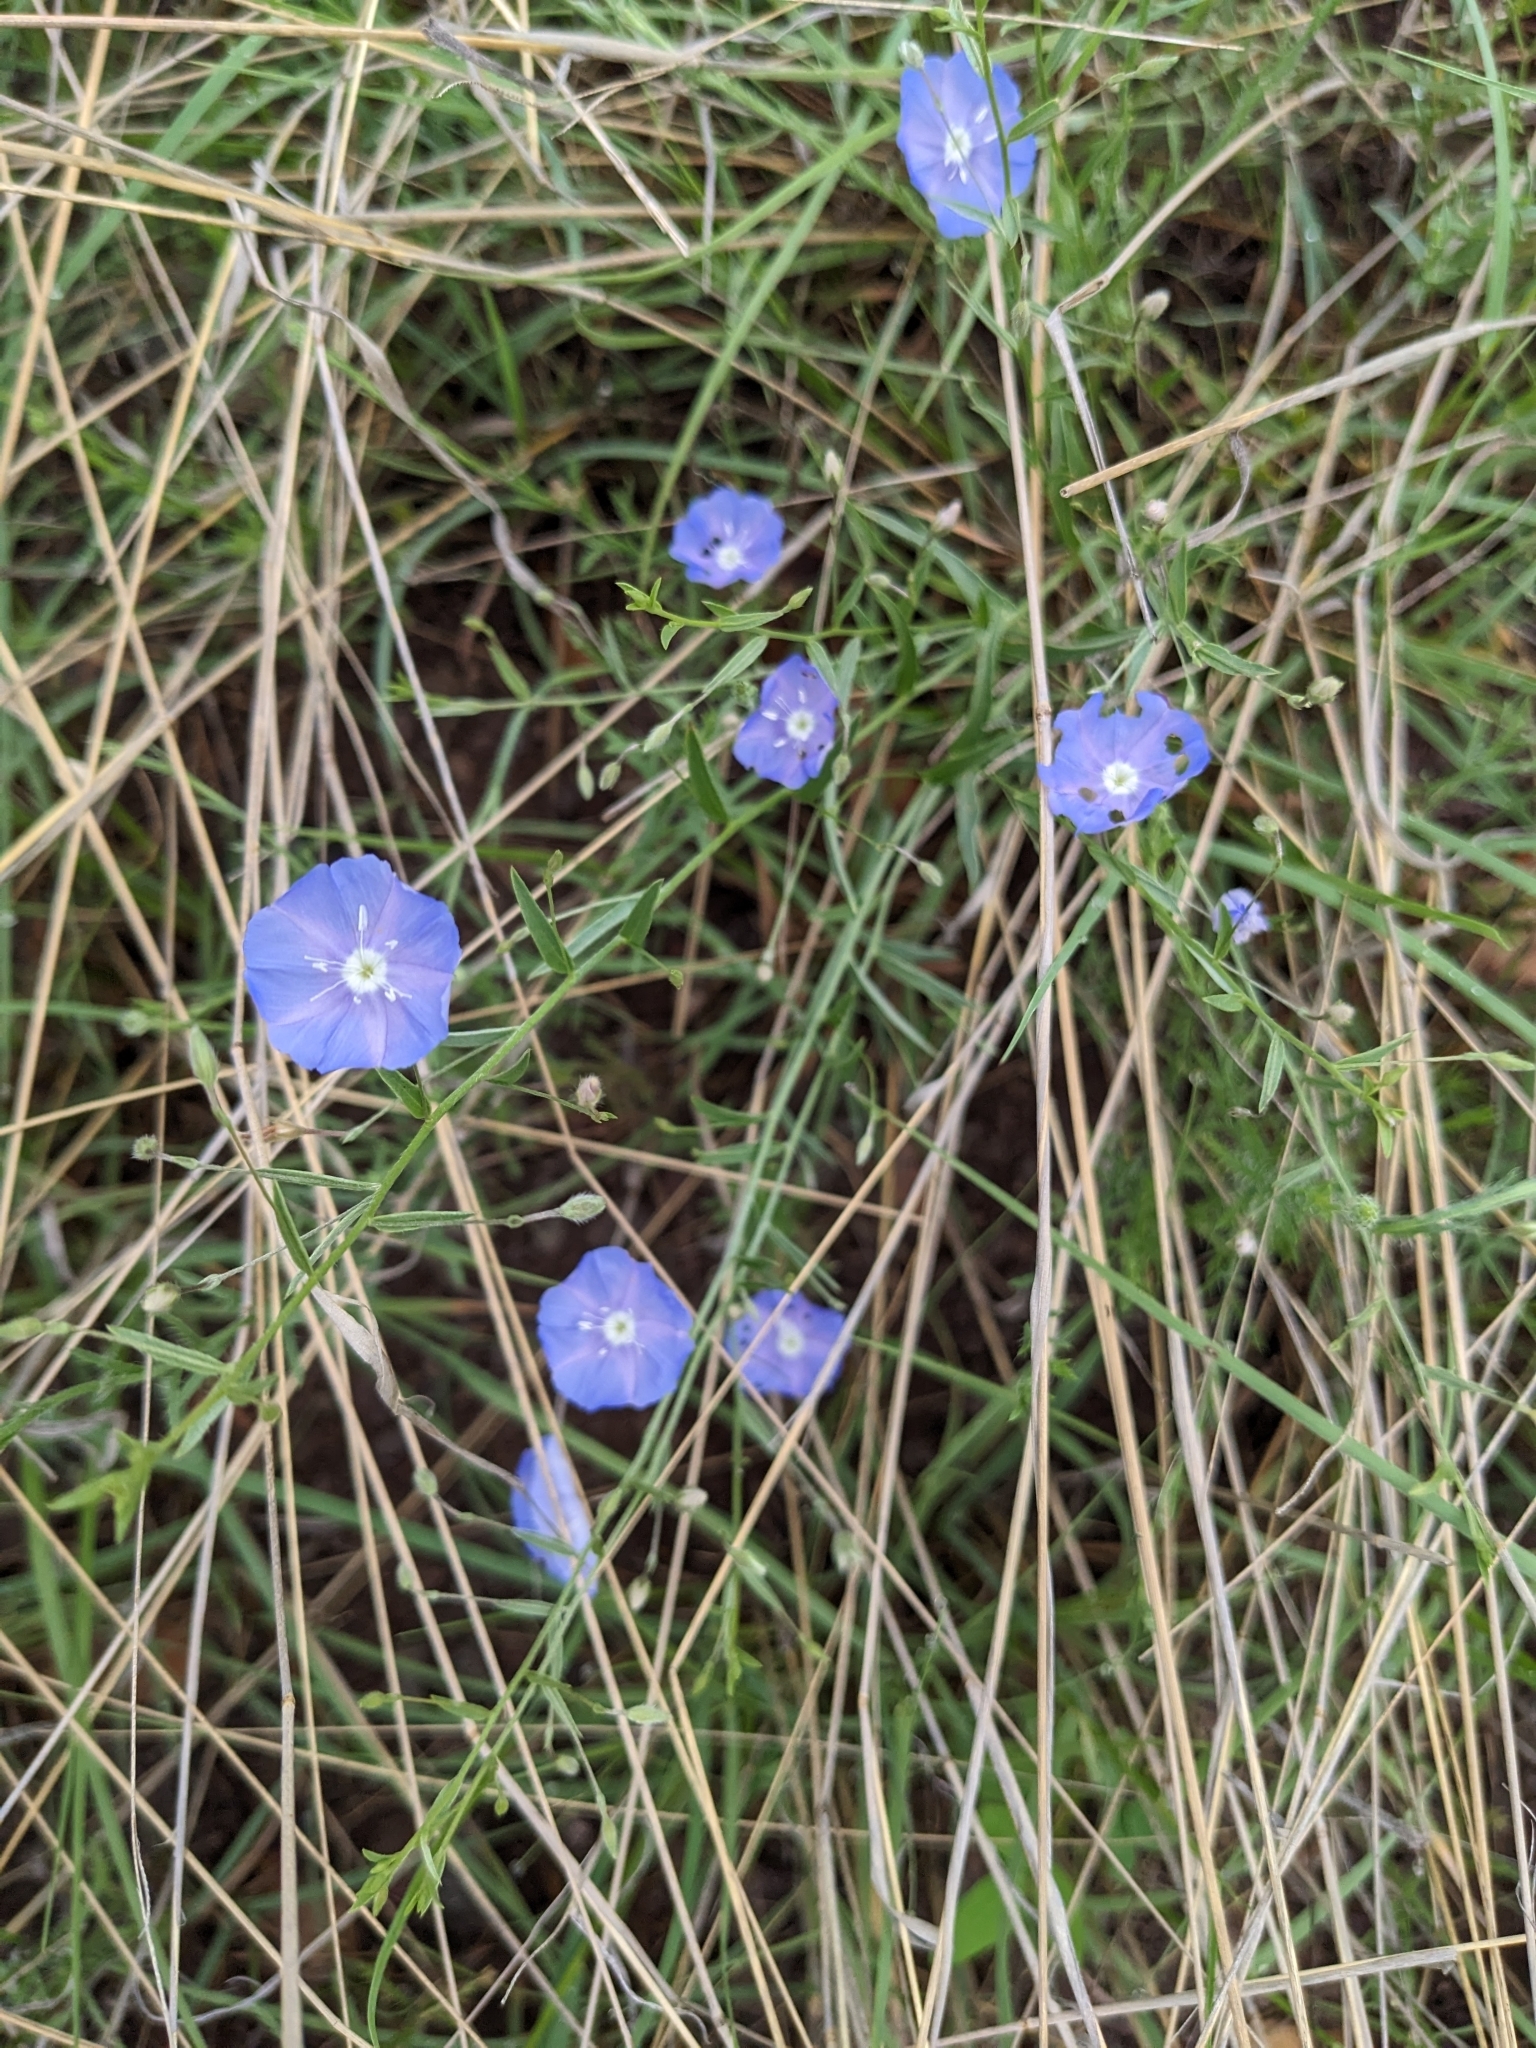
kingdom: Plantae
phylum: Tracheophyta
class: Magnoliopsida
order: Solanales
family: Convolvulaceae
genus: Evolvulus
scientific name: Evolvulus arizonicus
